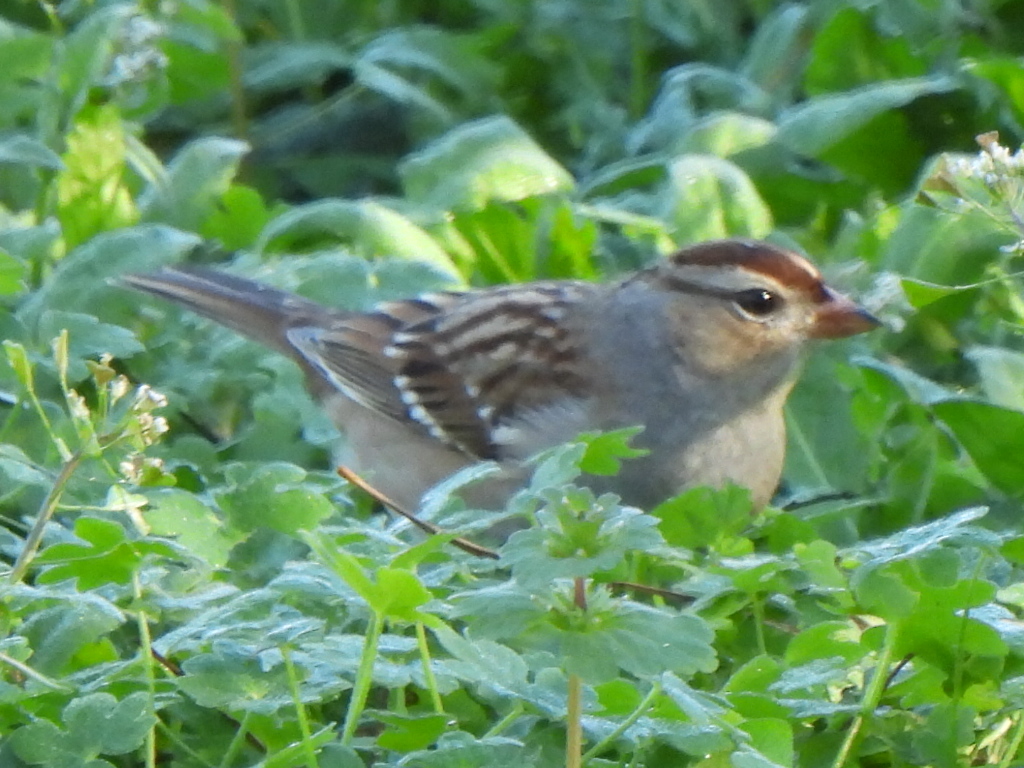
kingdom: Animalia
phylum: Chordata
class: Aves
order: Passeriformes
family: Passerellidae
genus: Zonotrichia
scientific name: Zonotrichia leucophrys
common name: White-crowned sparrow
